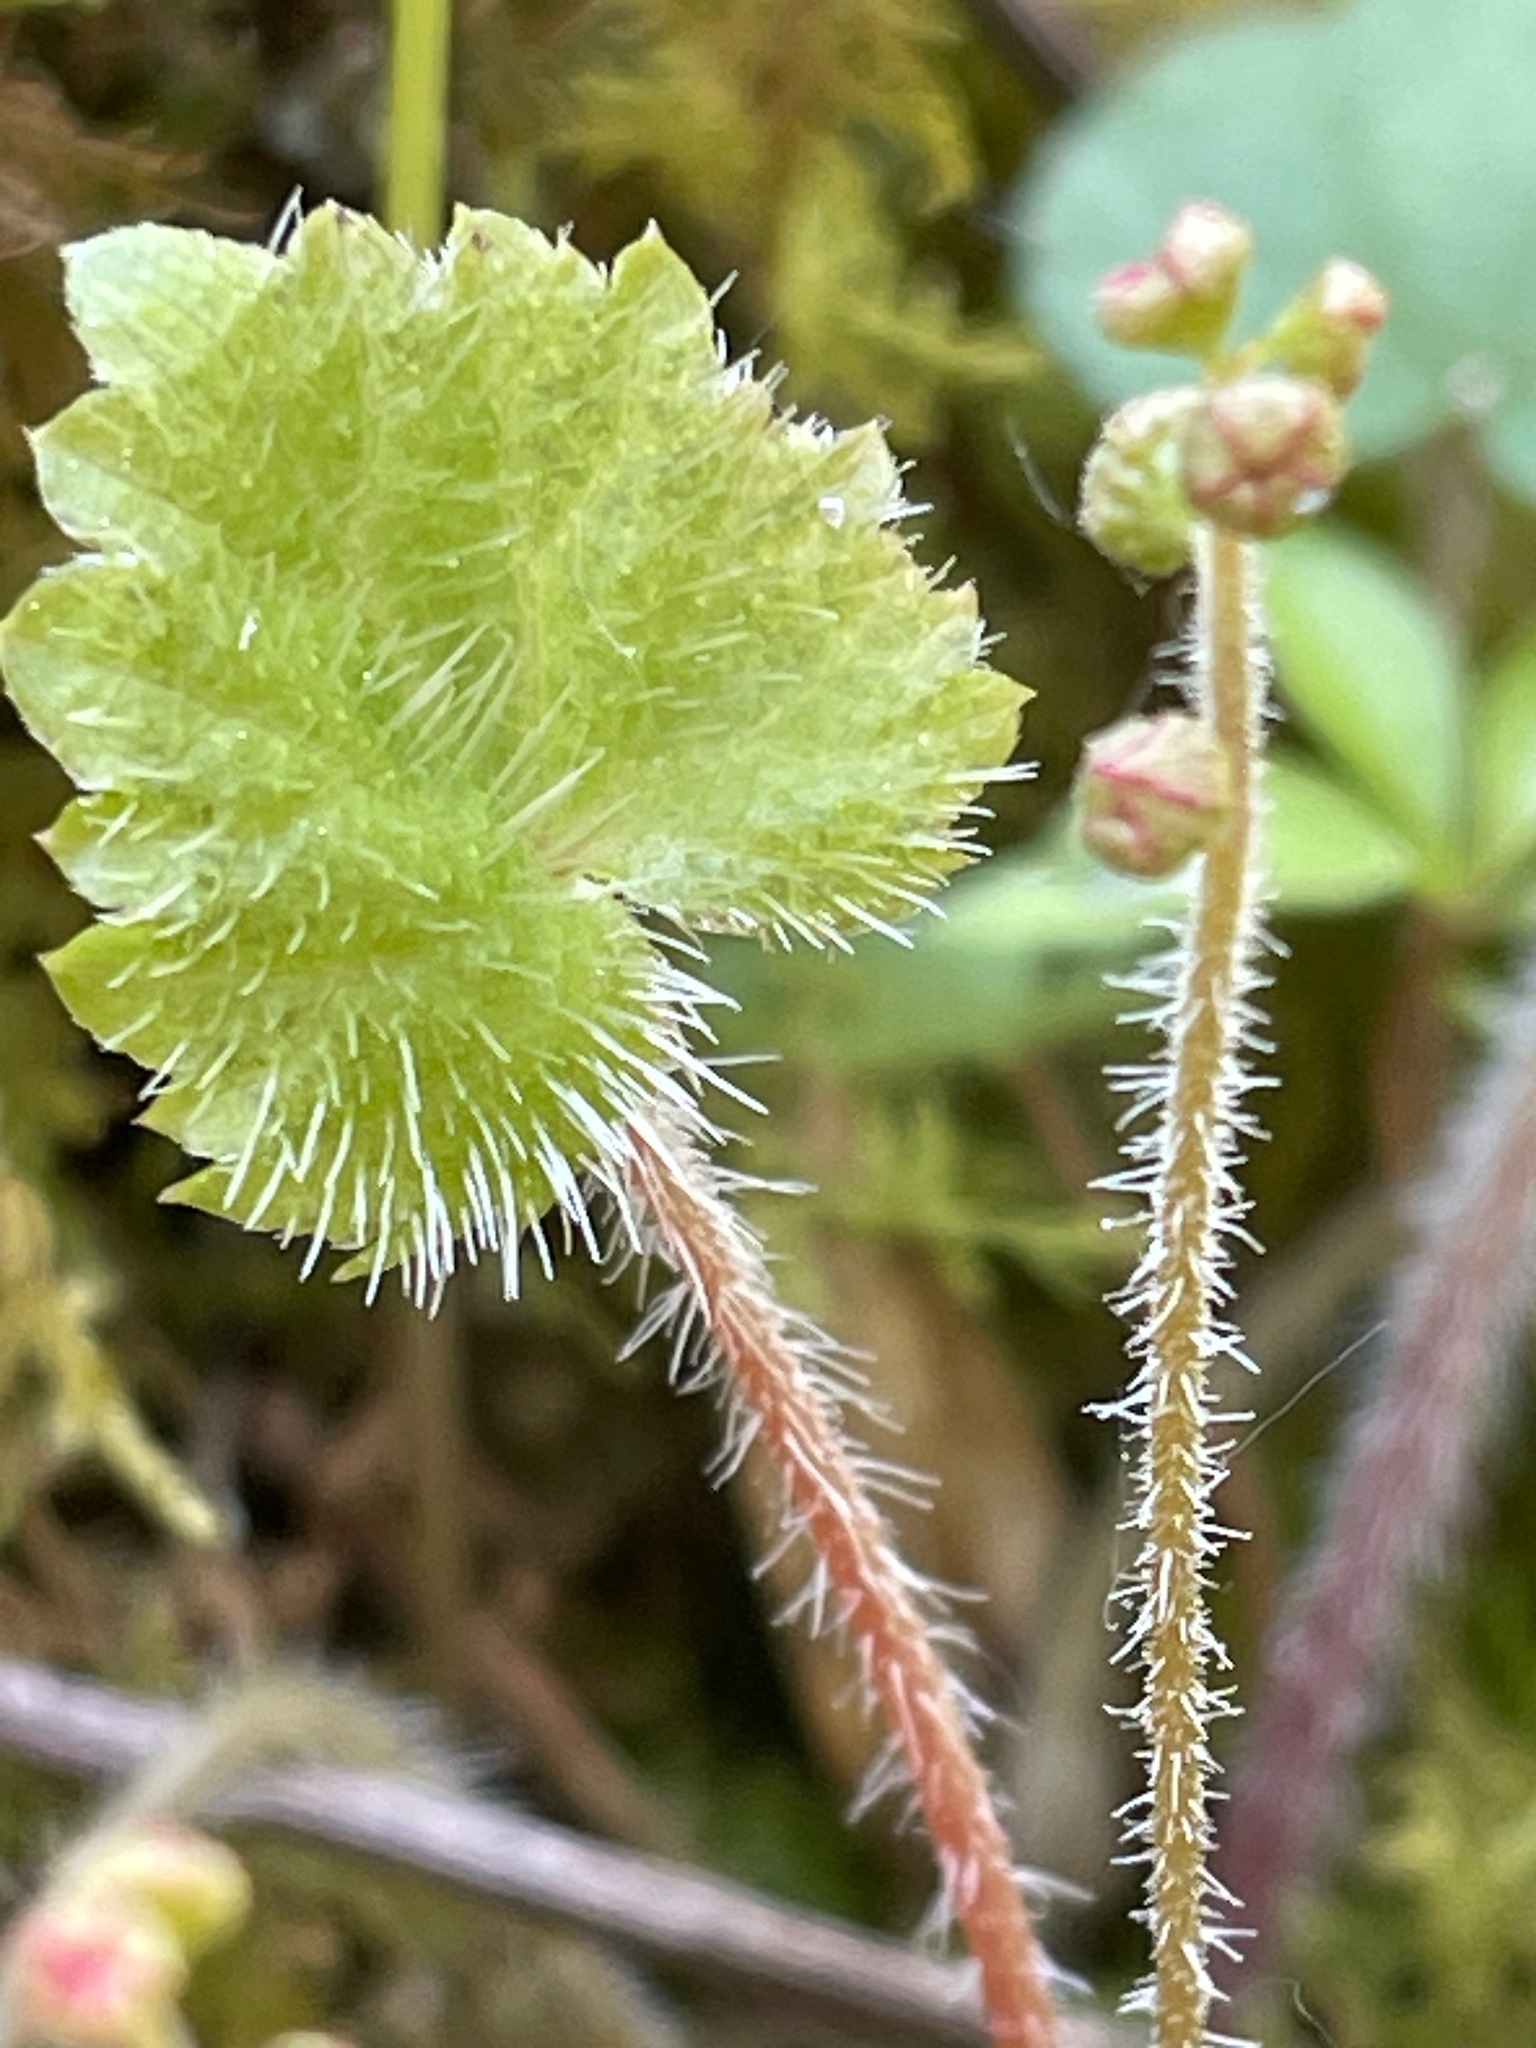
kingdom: Plantae
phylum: Tracheophyta
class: Magnoliopsida
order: Saxifragales
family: Saxifragaceae
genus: Mitella
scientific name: Mitella nuda
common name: Bare-stemmed bishop's-cap
